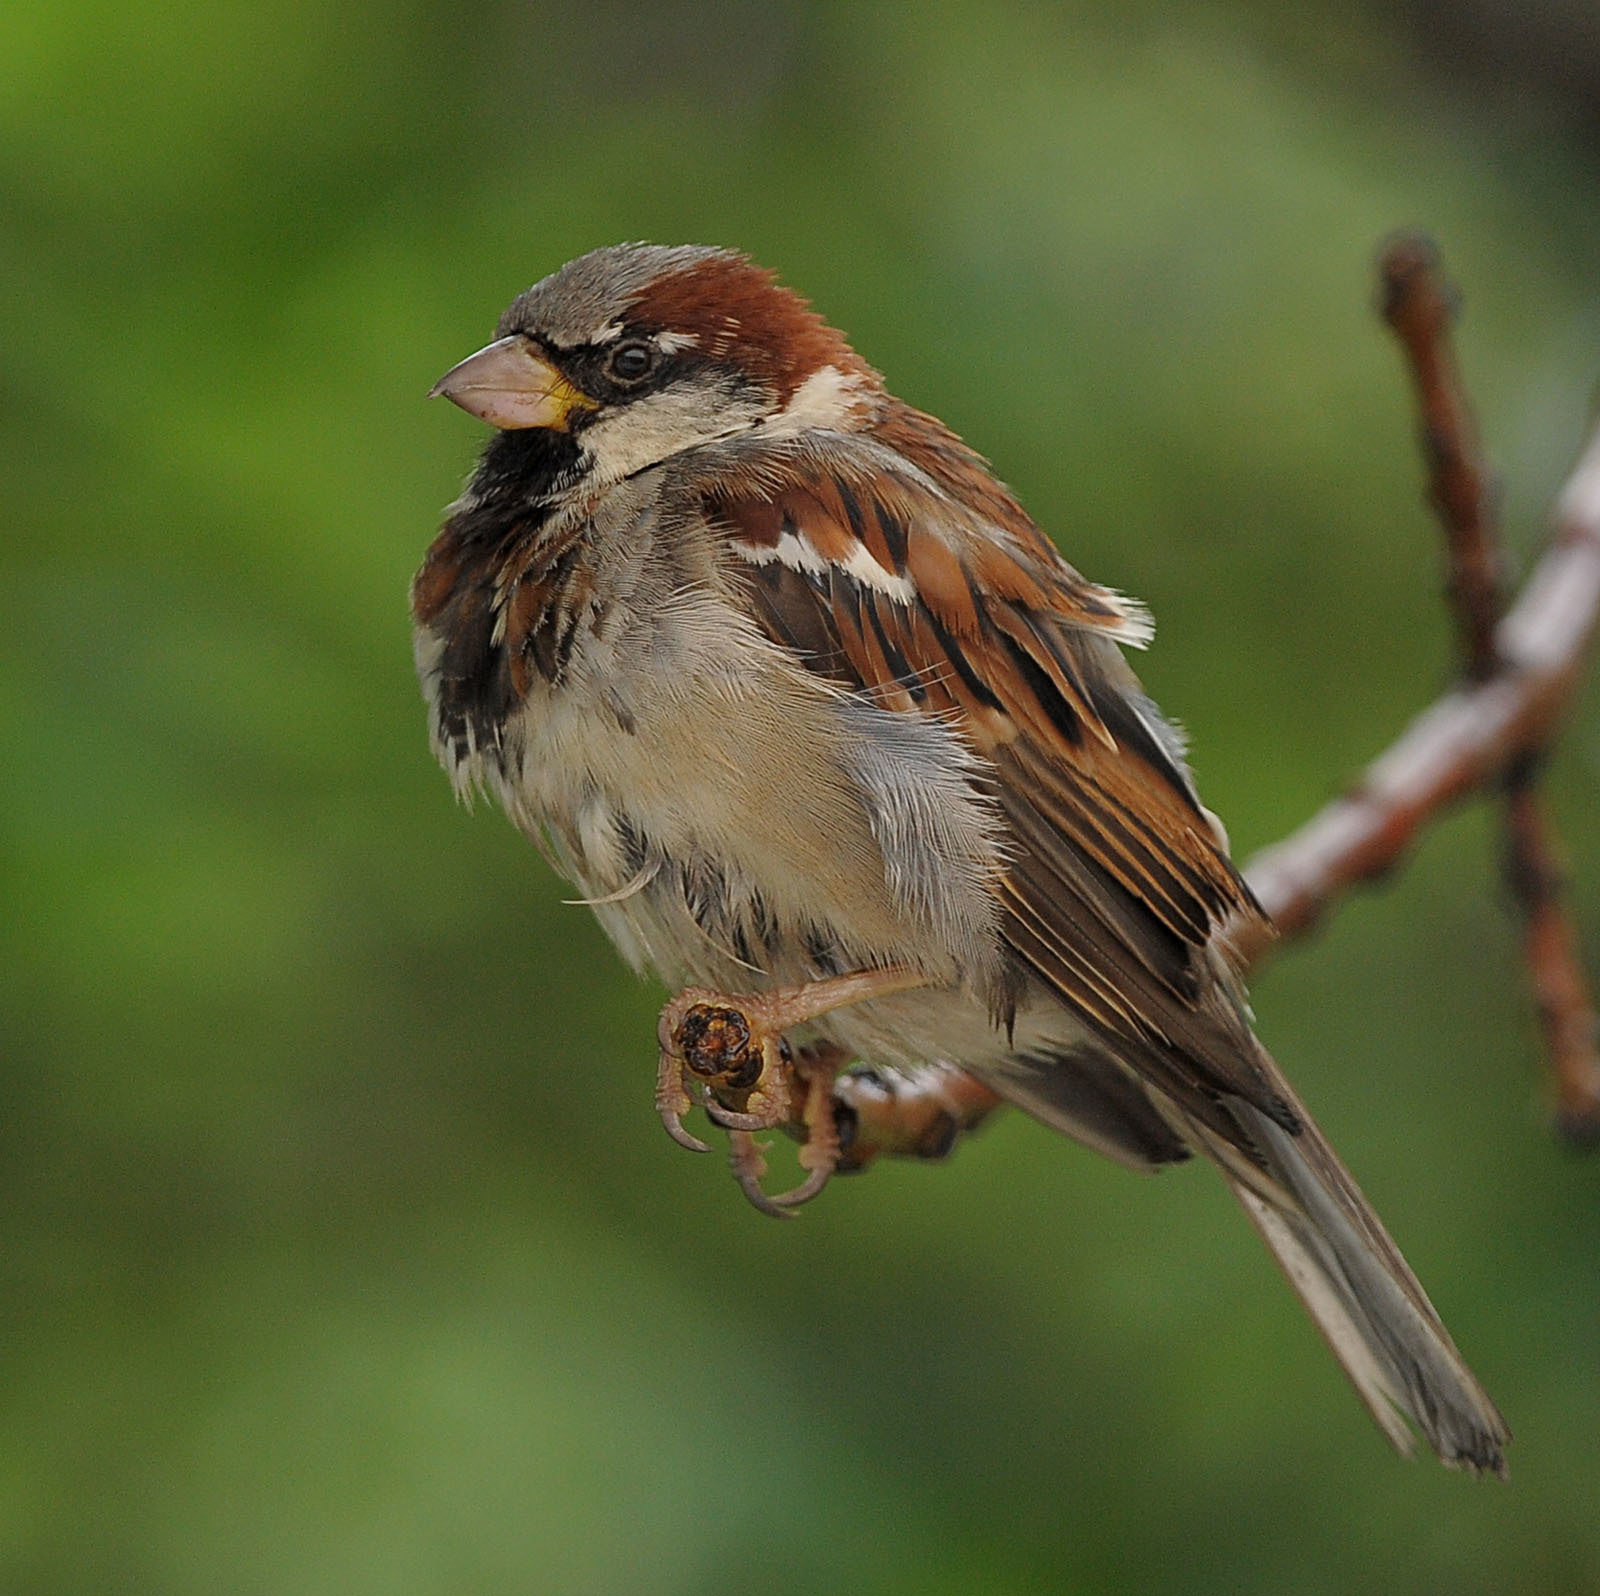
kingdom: Animalia
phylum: Chordata
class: Aves
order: Passeriformes
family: Passeridae
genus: Passer
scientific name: Passer domesticus
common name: House sparrow
